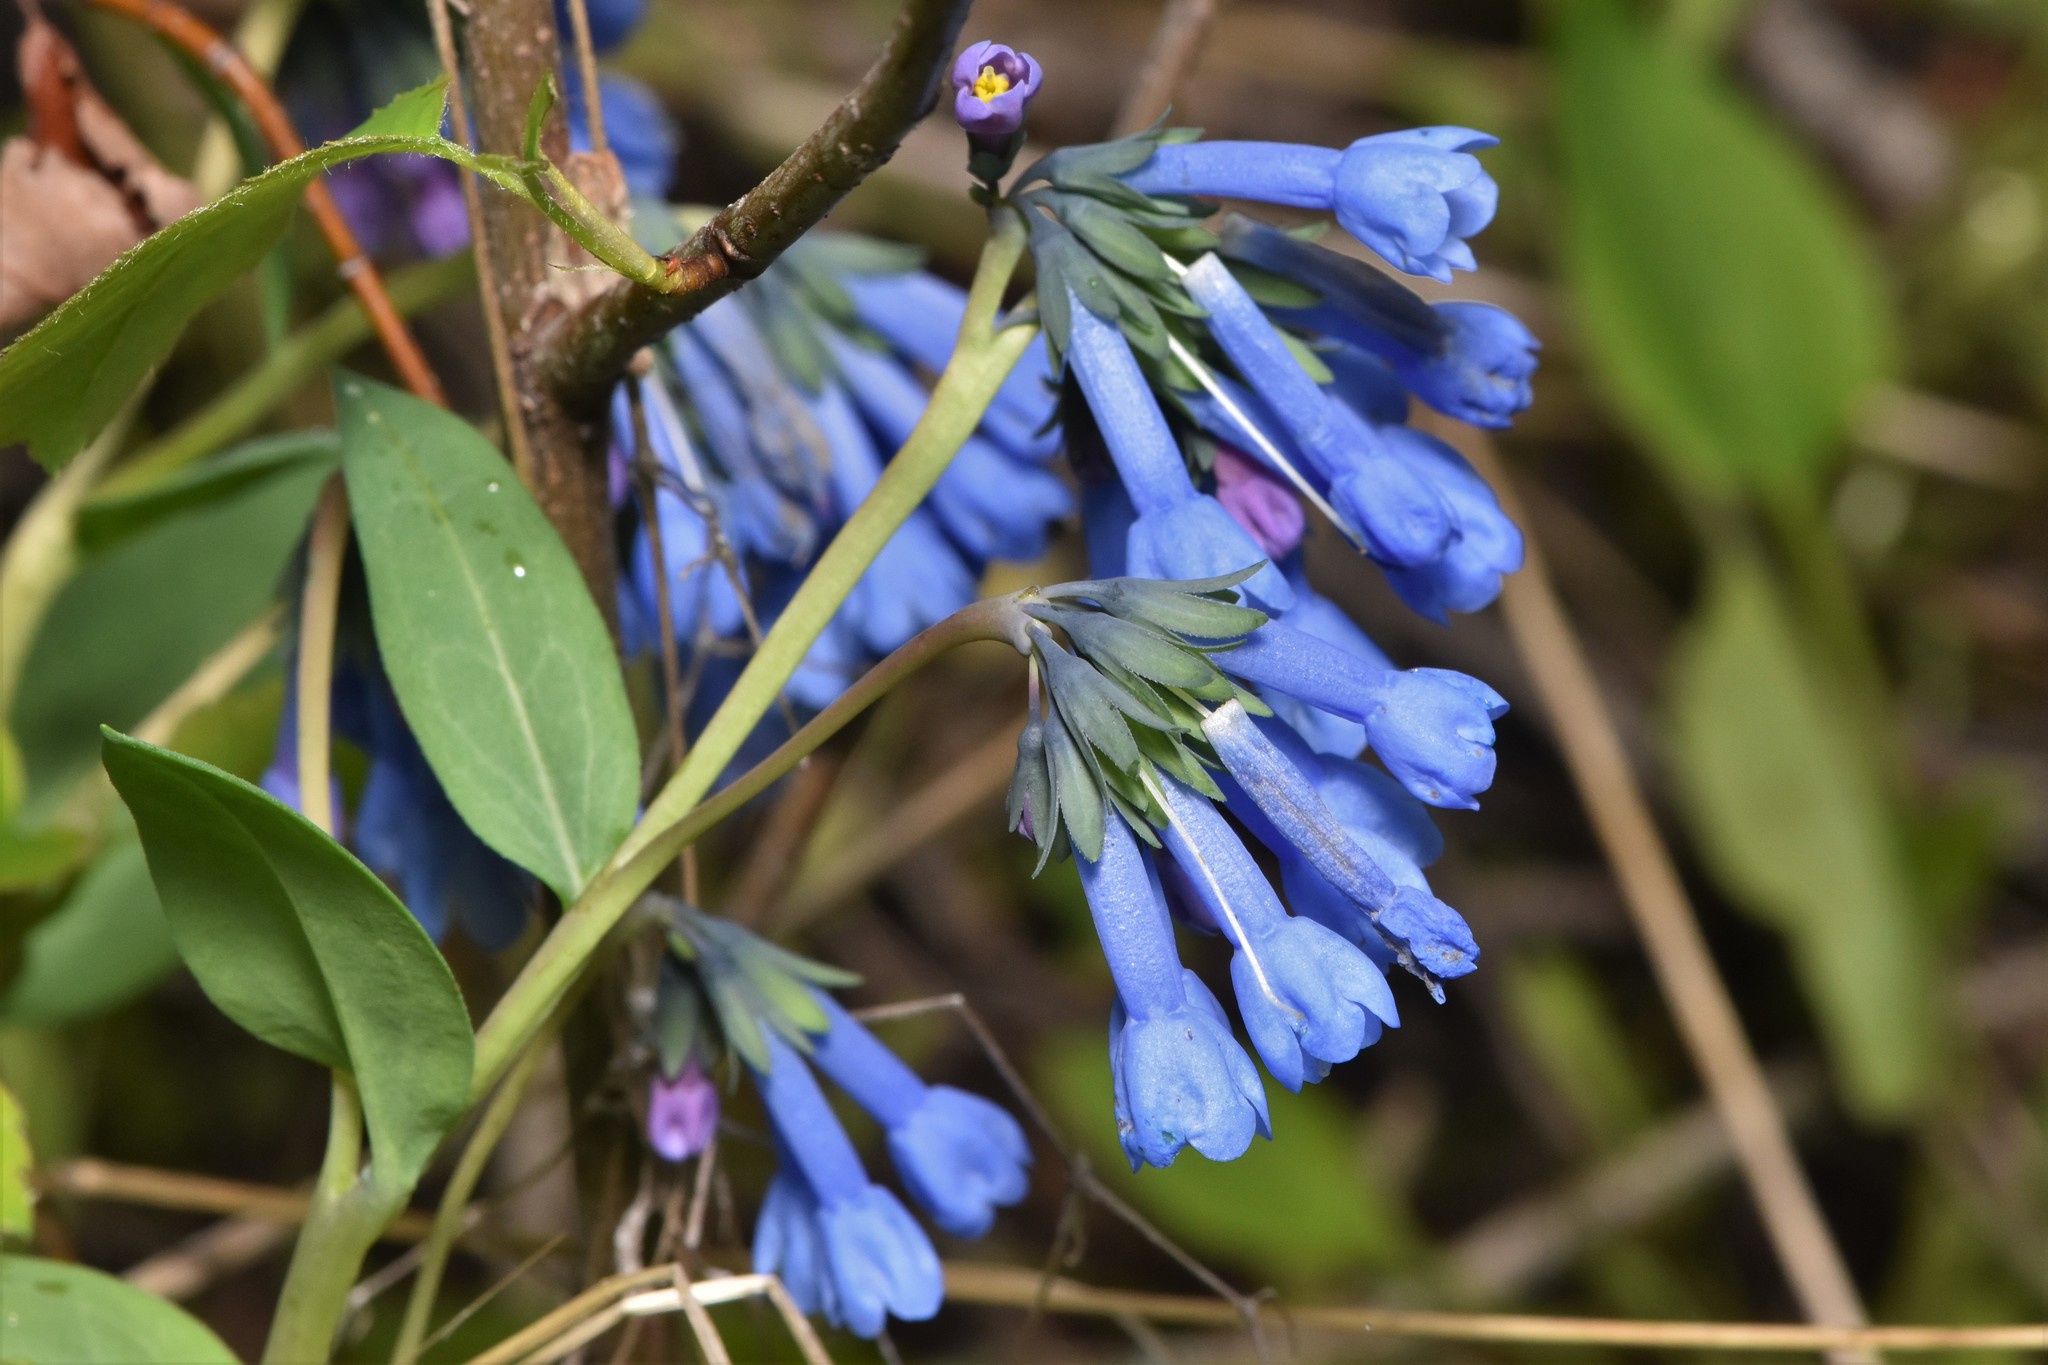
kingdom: Plantae
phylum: Tracheophyta
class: Magnoliopsida
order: Boraginales
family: Boraginaceae
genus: Mertensia
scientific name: Mertensia longiflora
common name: Large-flowered bluebells
